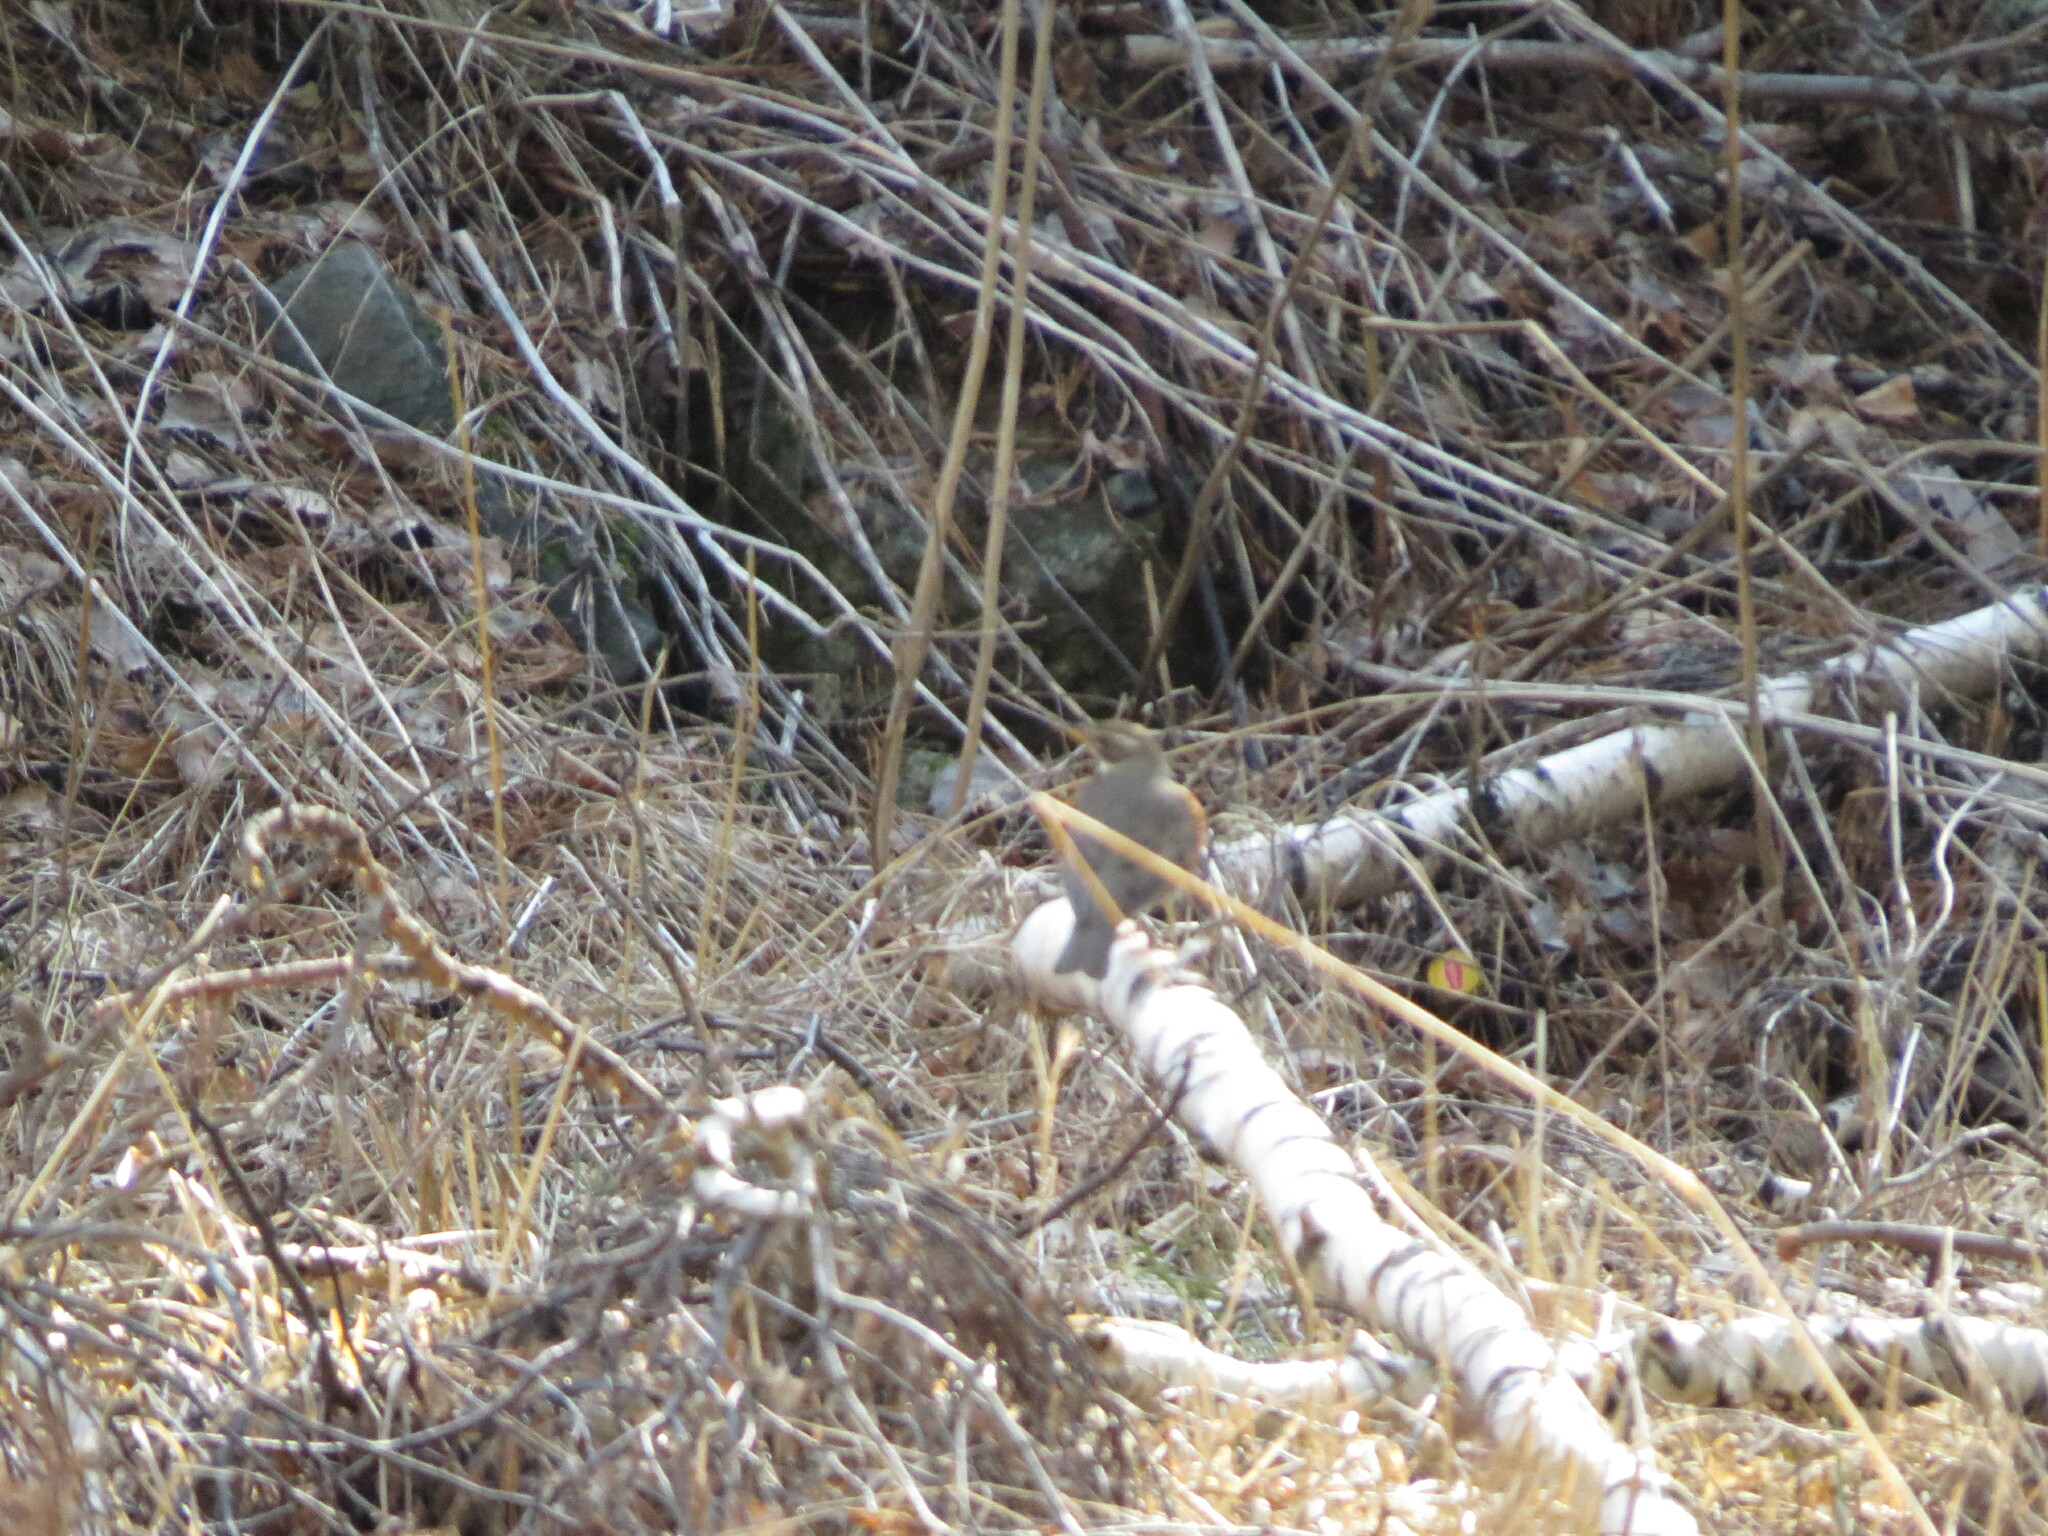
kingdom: Animalia
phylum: Chordata
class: Aves
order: Passeriformes
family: Turdidae
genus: Turdus
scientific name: Turdus iliacus
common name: Redwing
